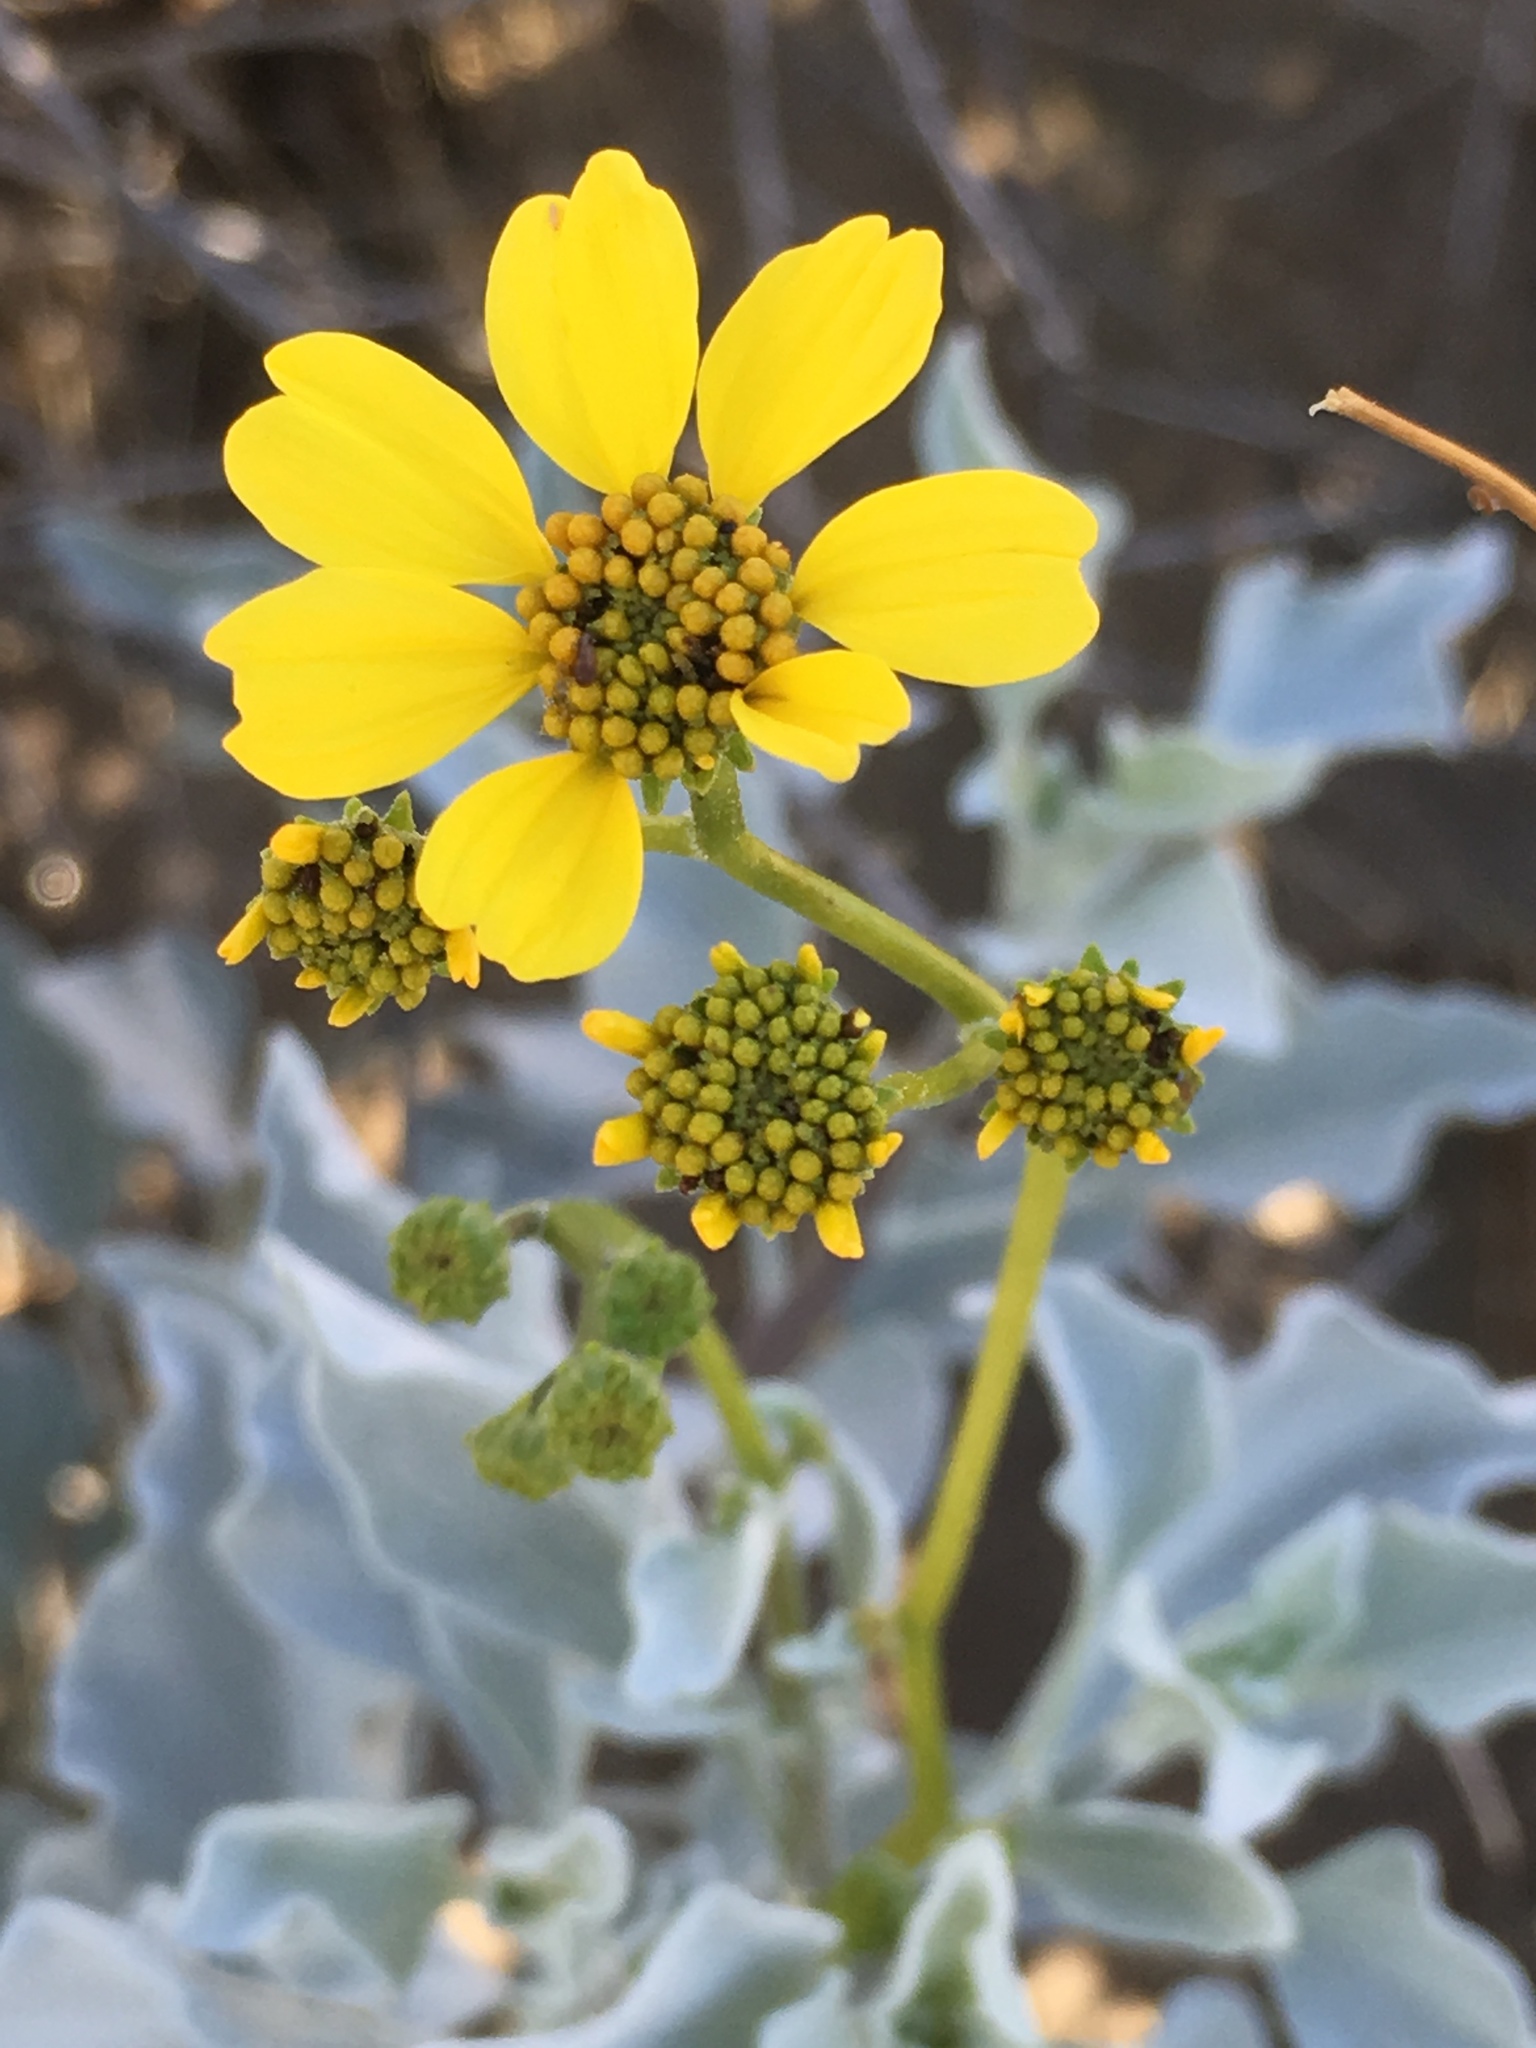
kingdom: Plantae
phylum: Tracheophyta
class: Magnoliopsida
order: Asterales
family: Asteraceae
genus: Encelia
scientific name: Encelia farinosa
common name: Brittlebush
